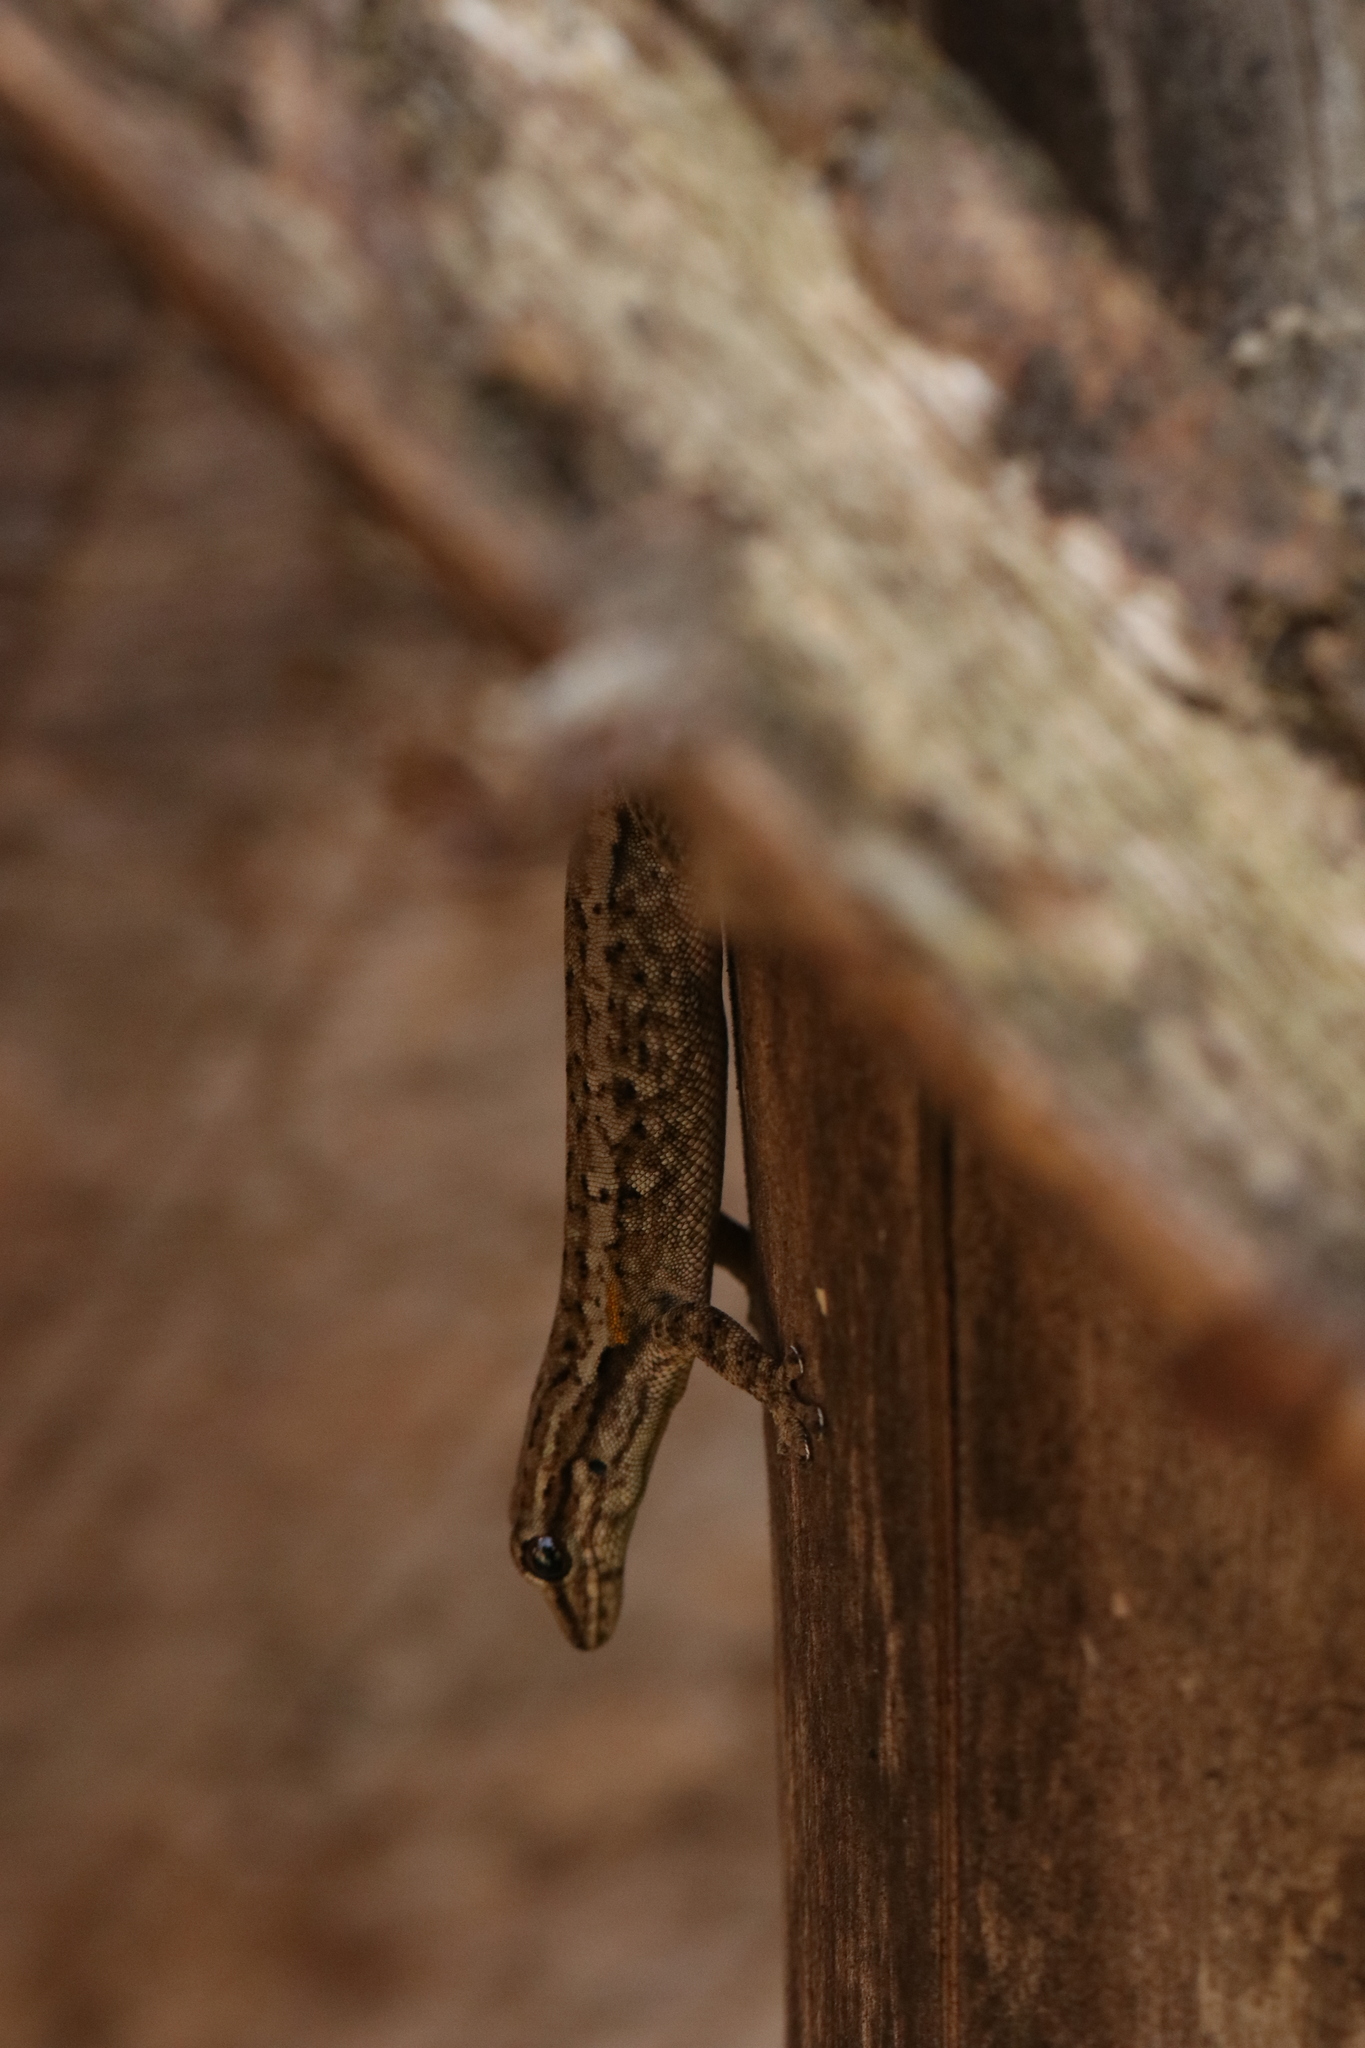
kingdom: Animalia
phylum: Chordata
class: Squamata
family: Gekkonidae
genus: Lygodactylus
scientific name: Lygodactylus angularis
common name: Angulate dwarf gecko
